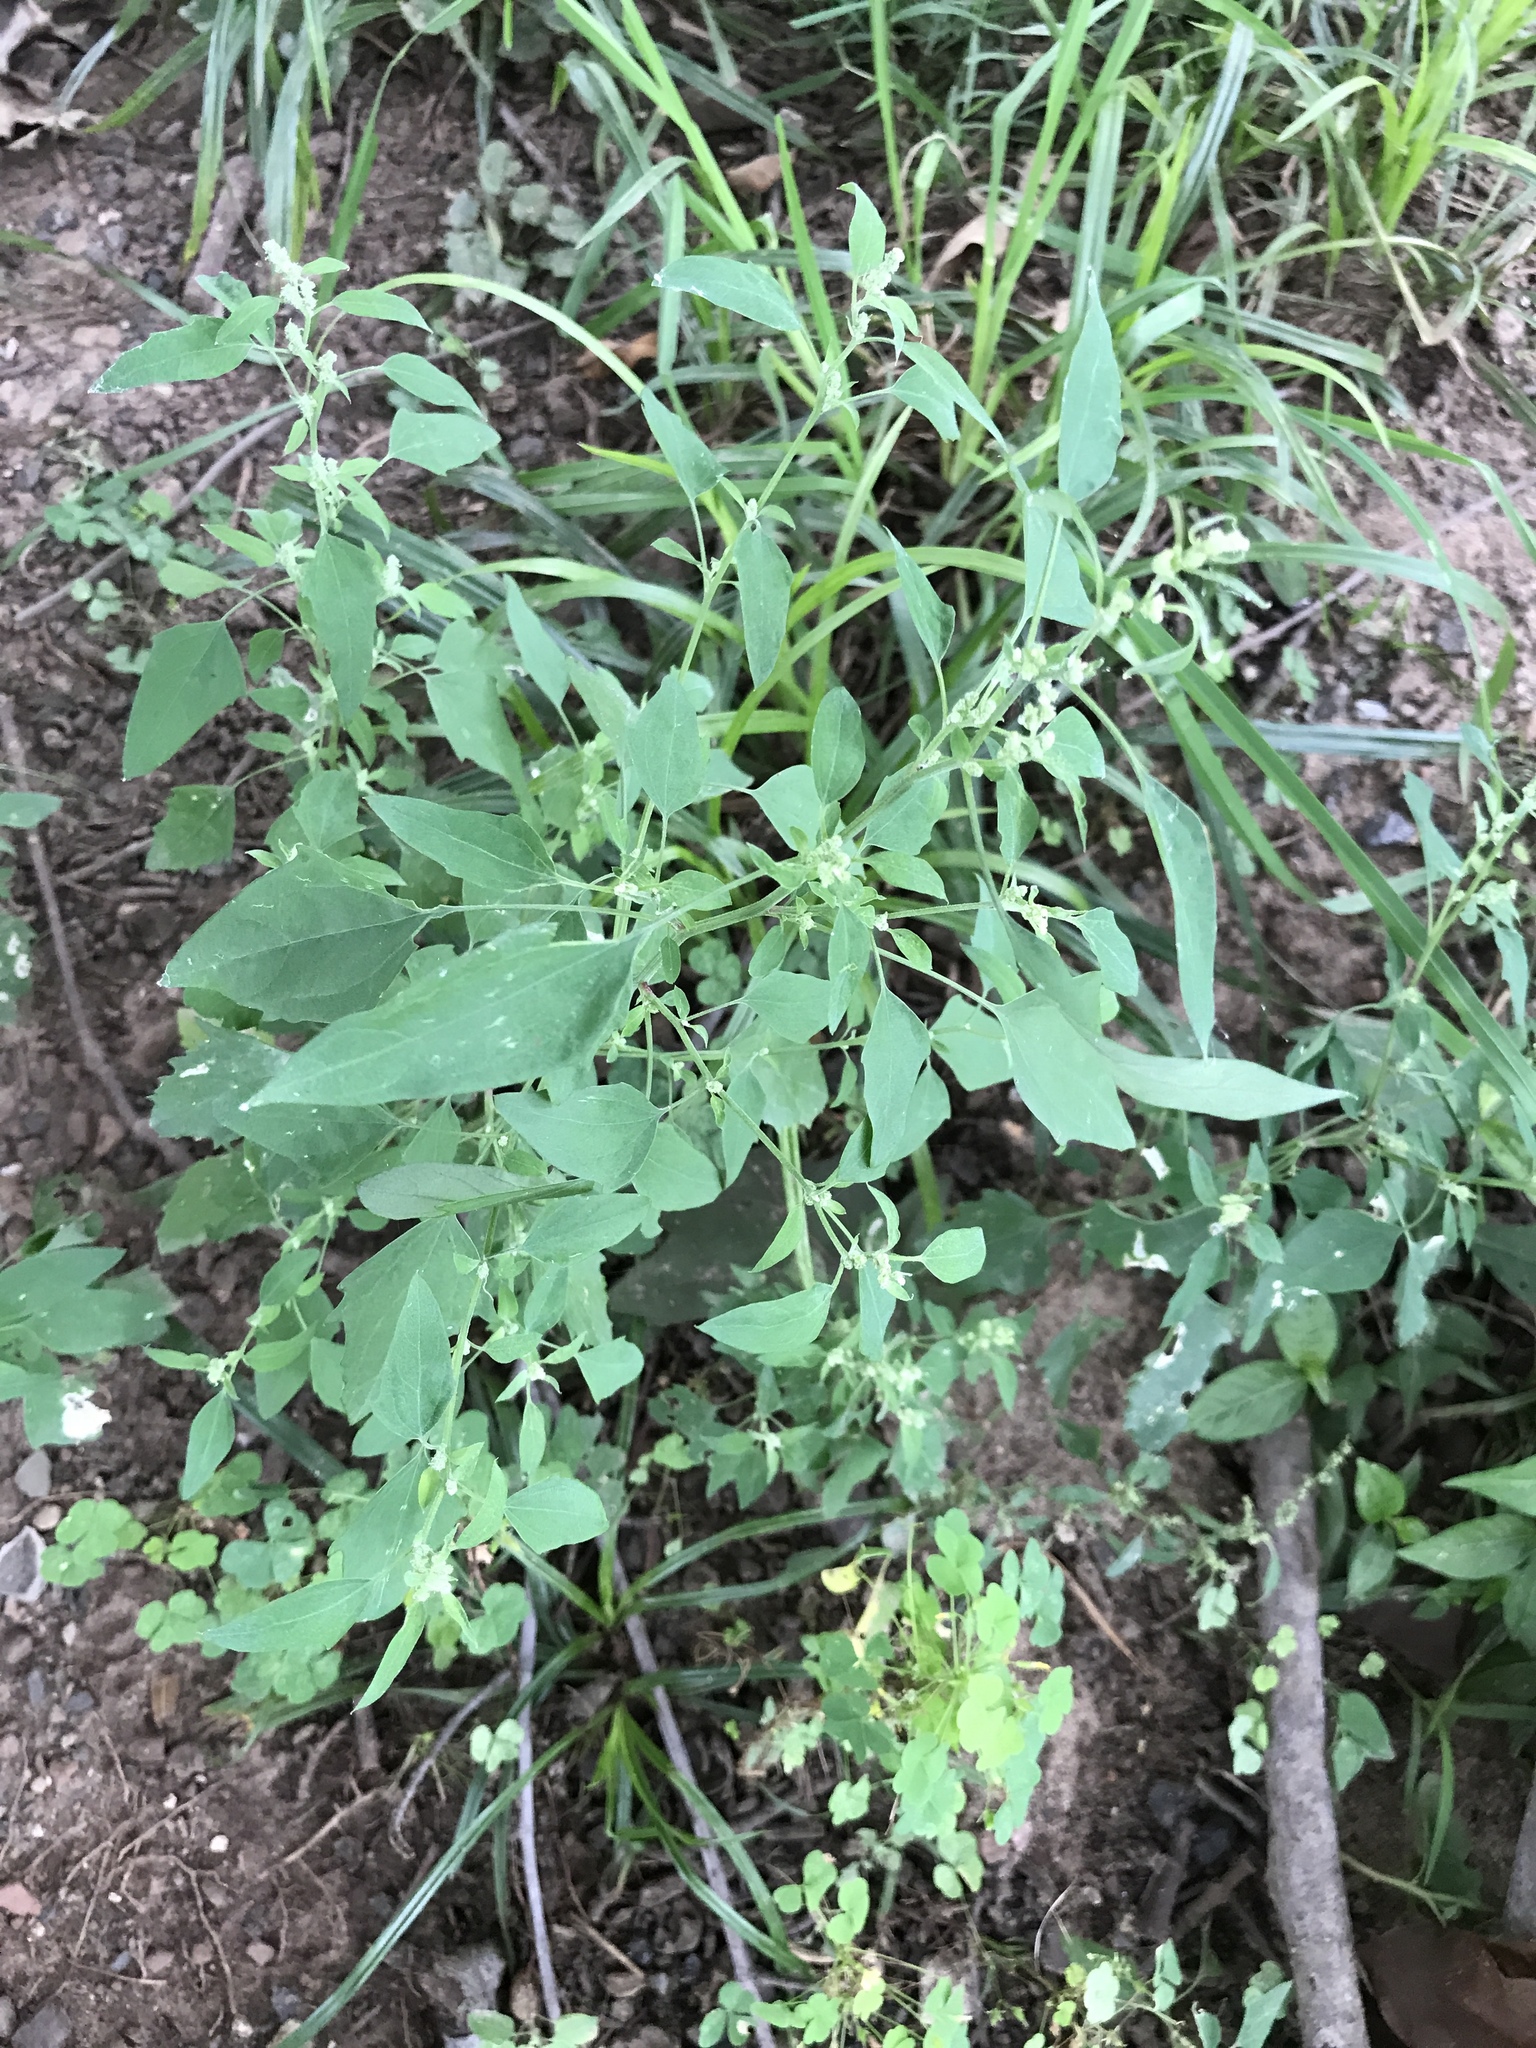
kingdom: Plantae
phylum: Tracheophyta
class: Magnoliopsida
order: Caryophyllales
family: Amaranthaceae
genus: Chenopodium
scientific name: Chenopodium album
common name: Fat-hen
